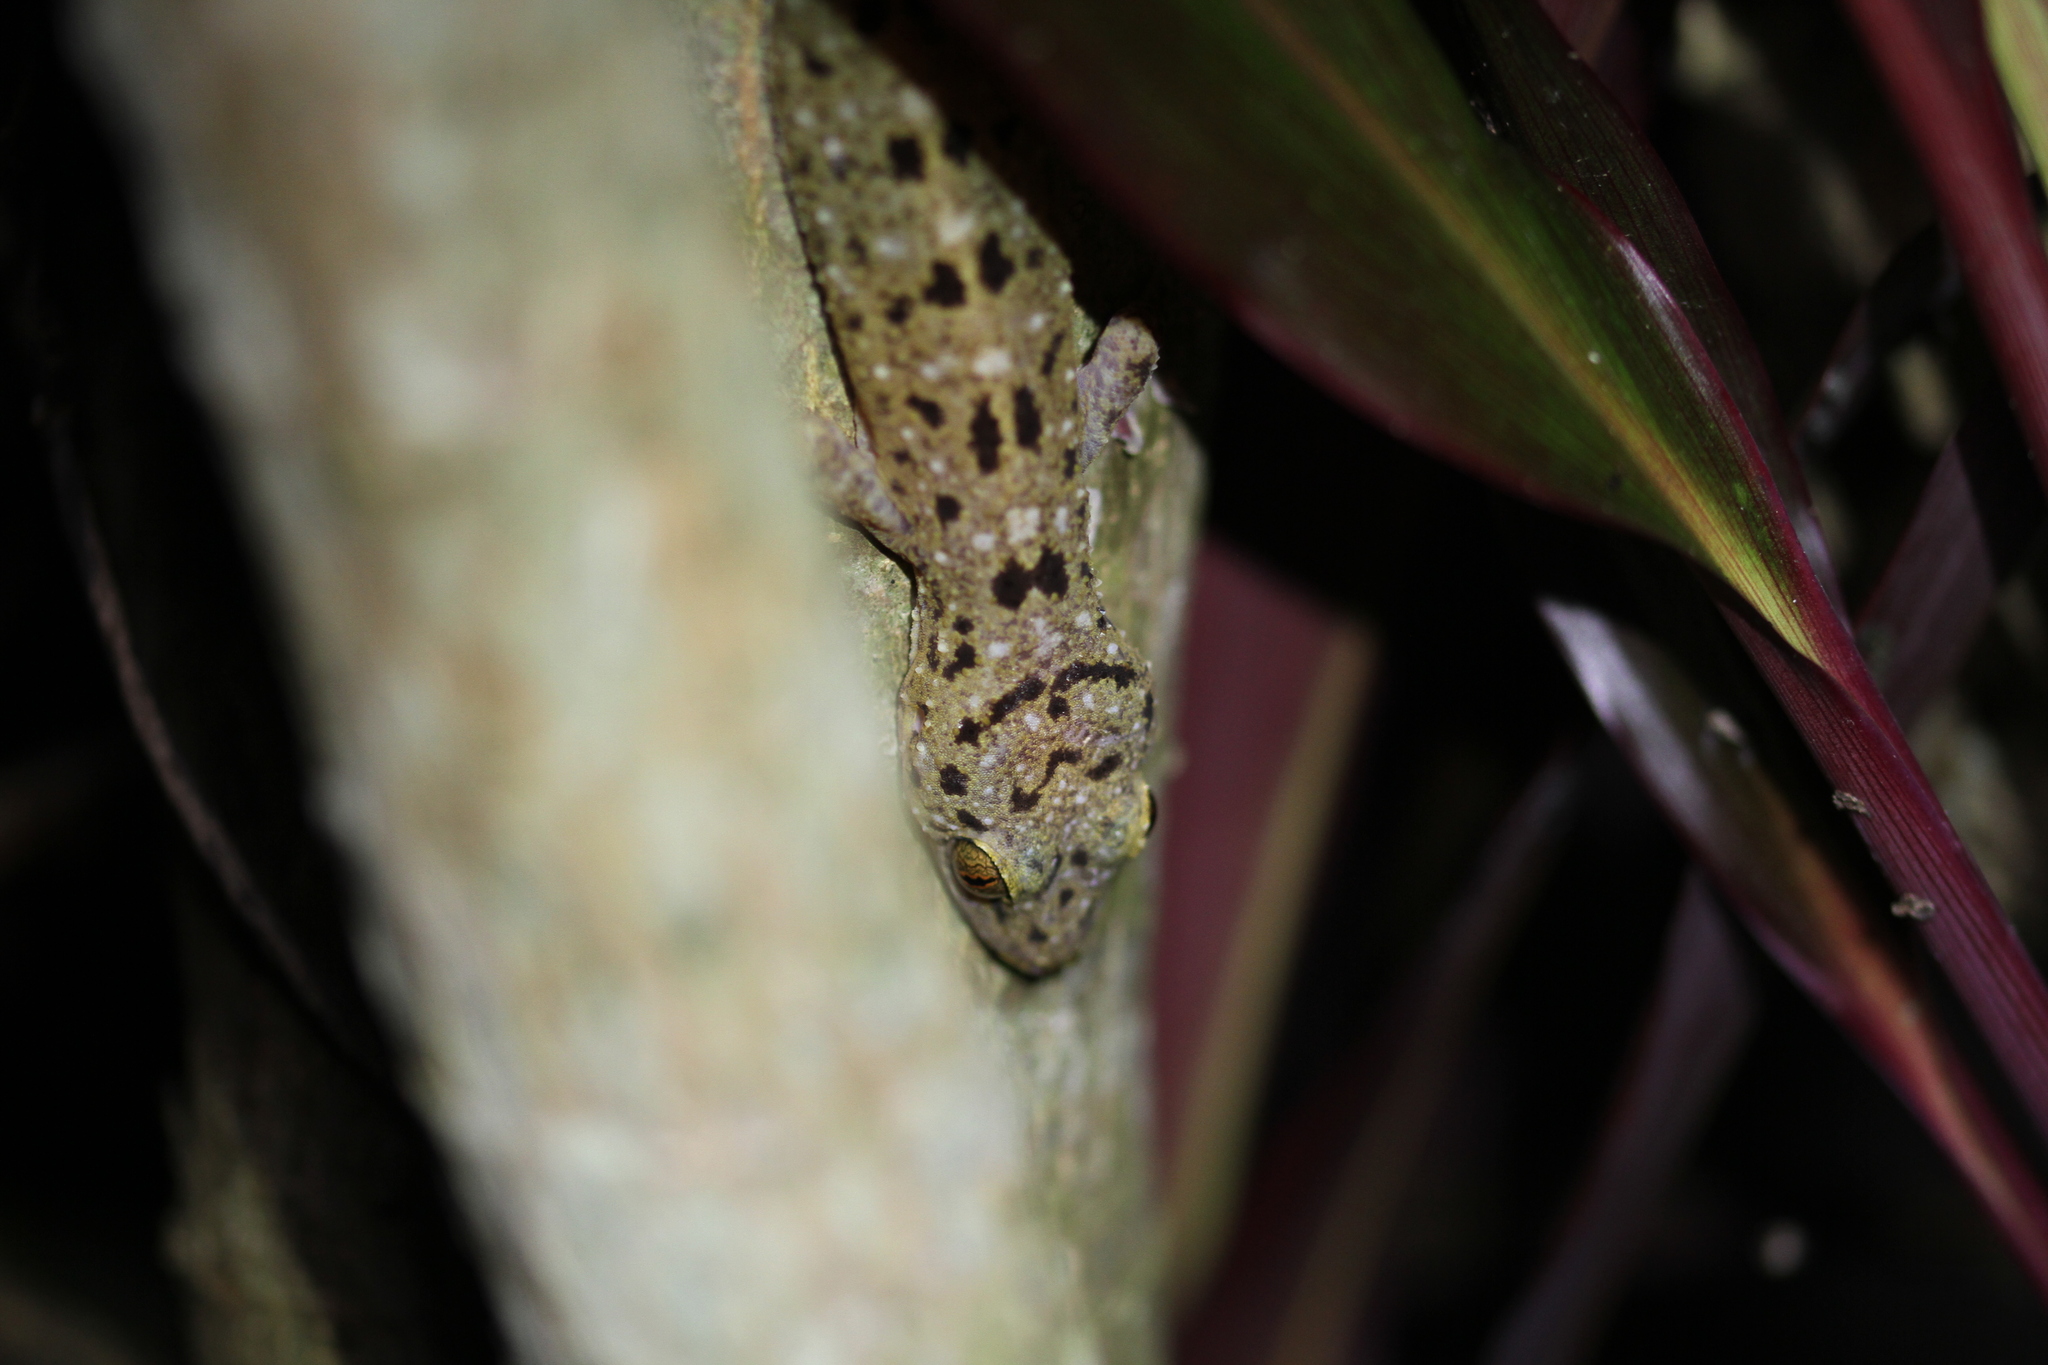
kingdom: Animalia
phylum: Chordata
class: Squamata
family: Gekkonidae
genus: Gekko
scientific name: Gekko monarchus
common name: Spotted house gecko
